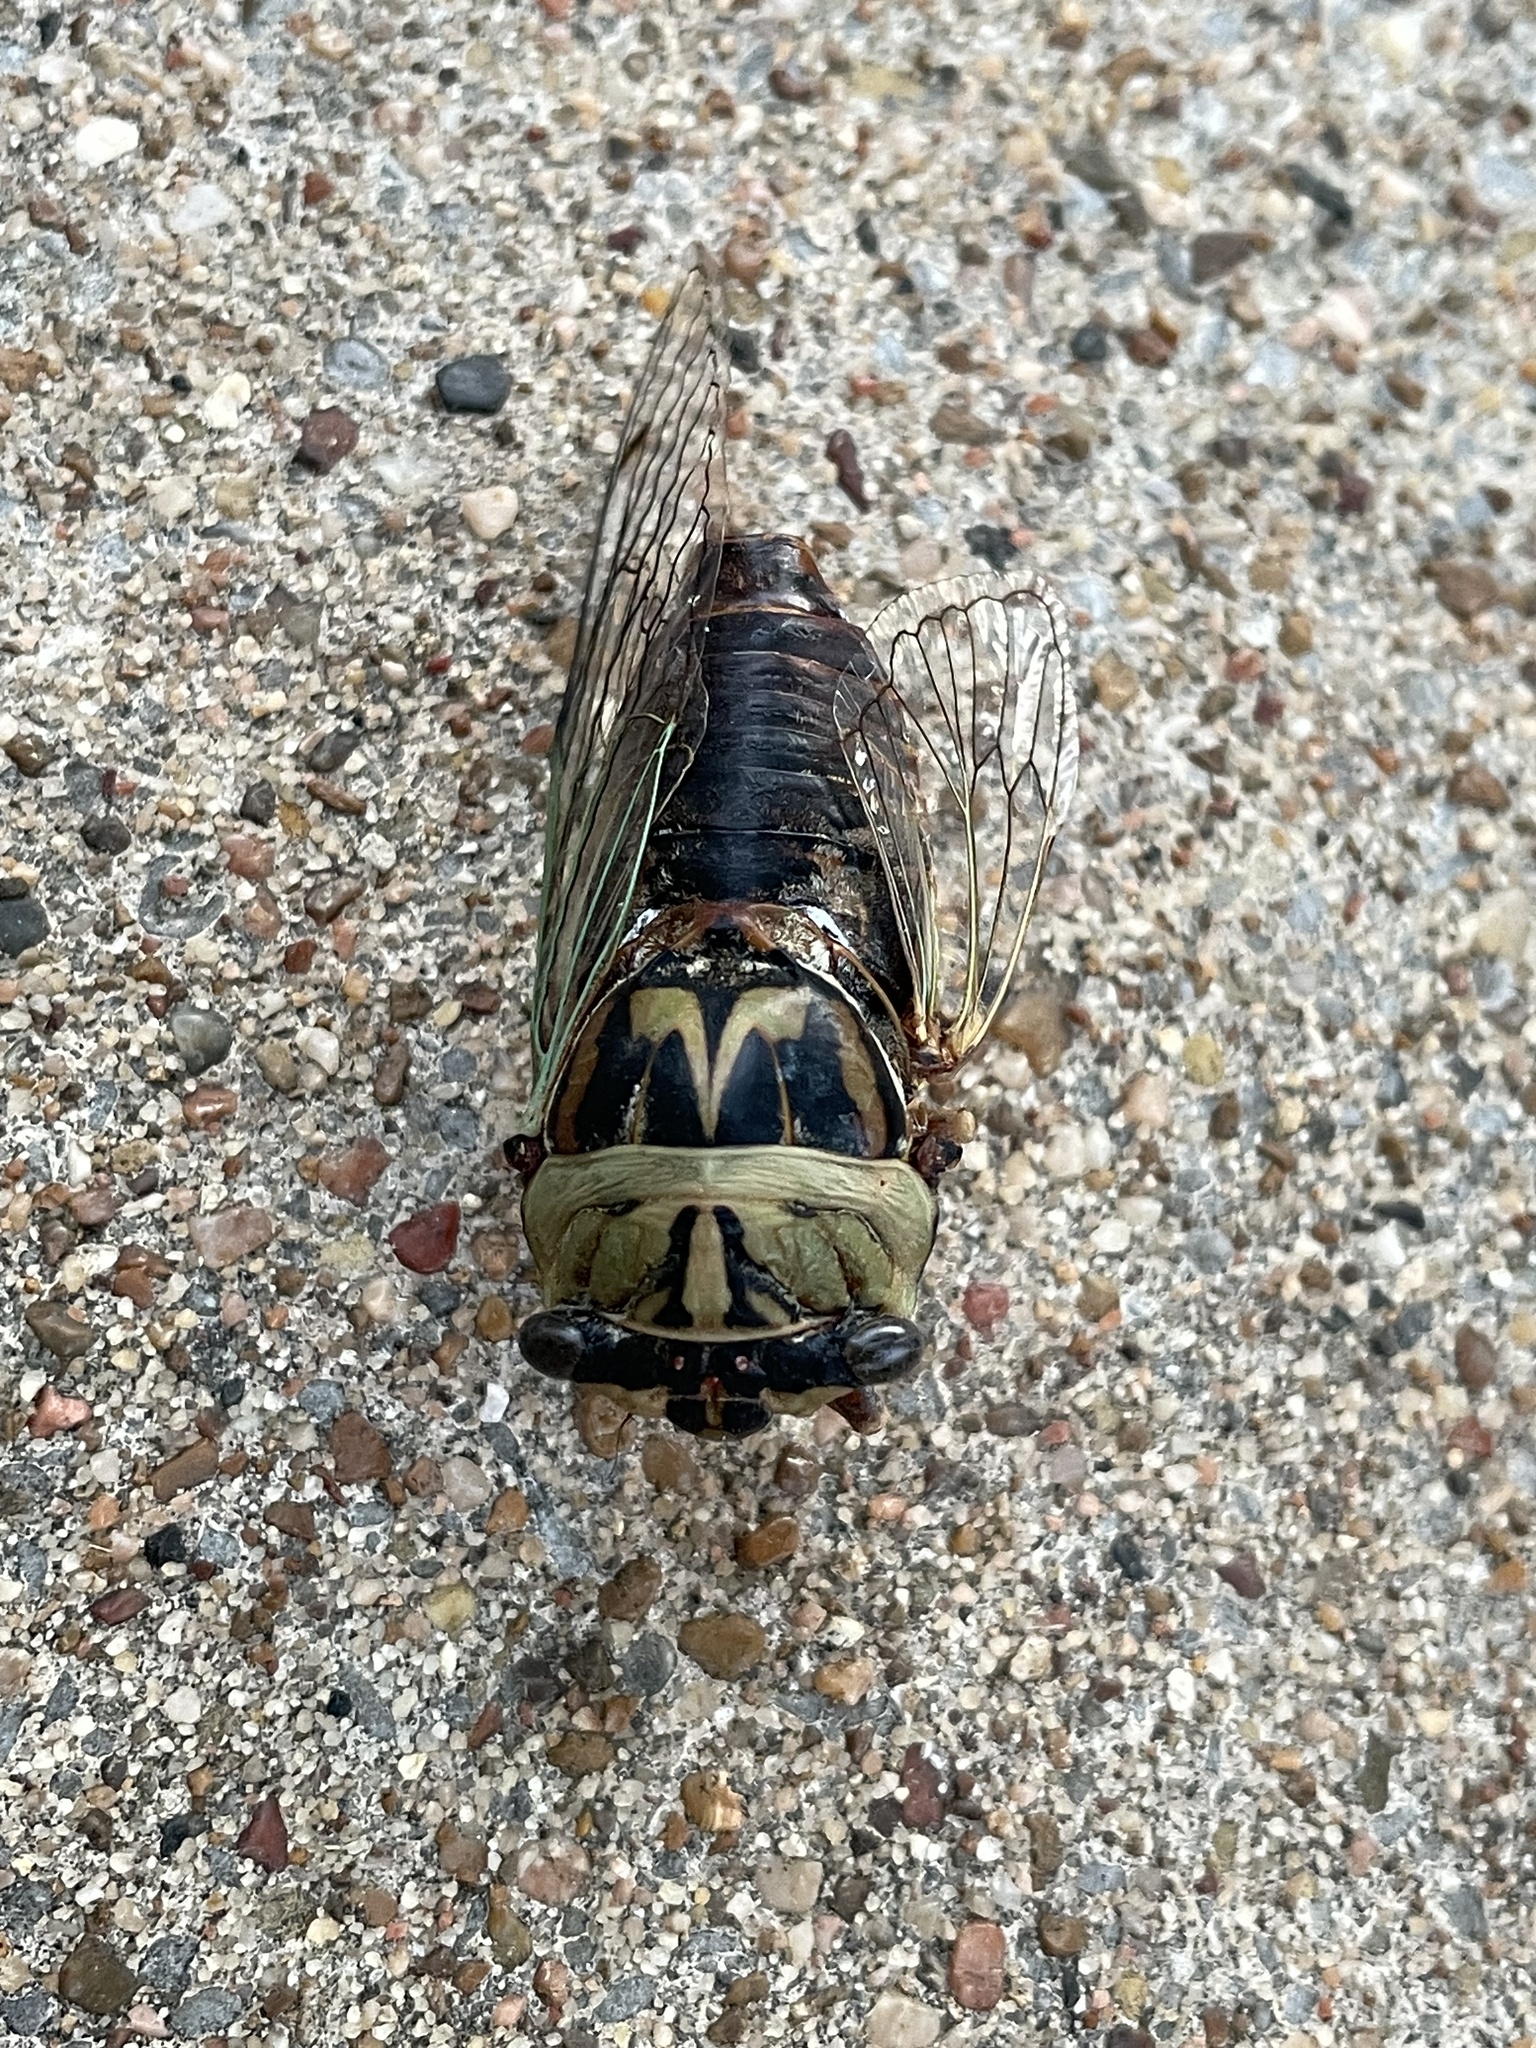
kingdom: Animalia
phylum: Arthropoda
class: Insecta
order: Hemiptera
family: Cicadidae
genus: Megatibicen
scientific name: Megatibicen resh
